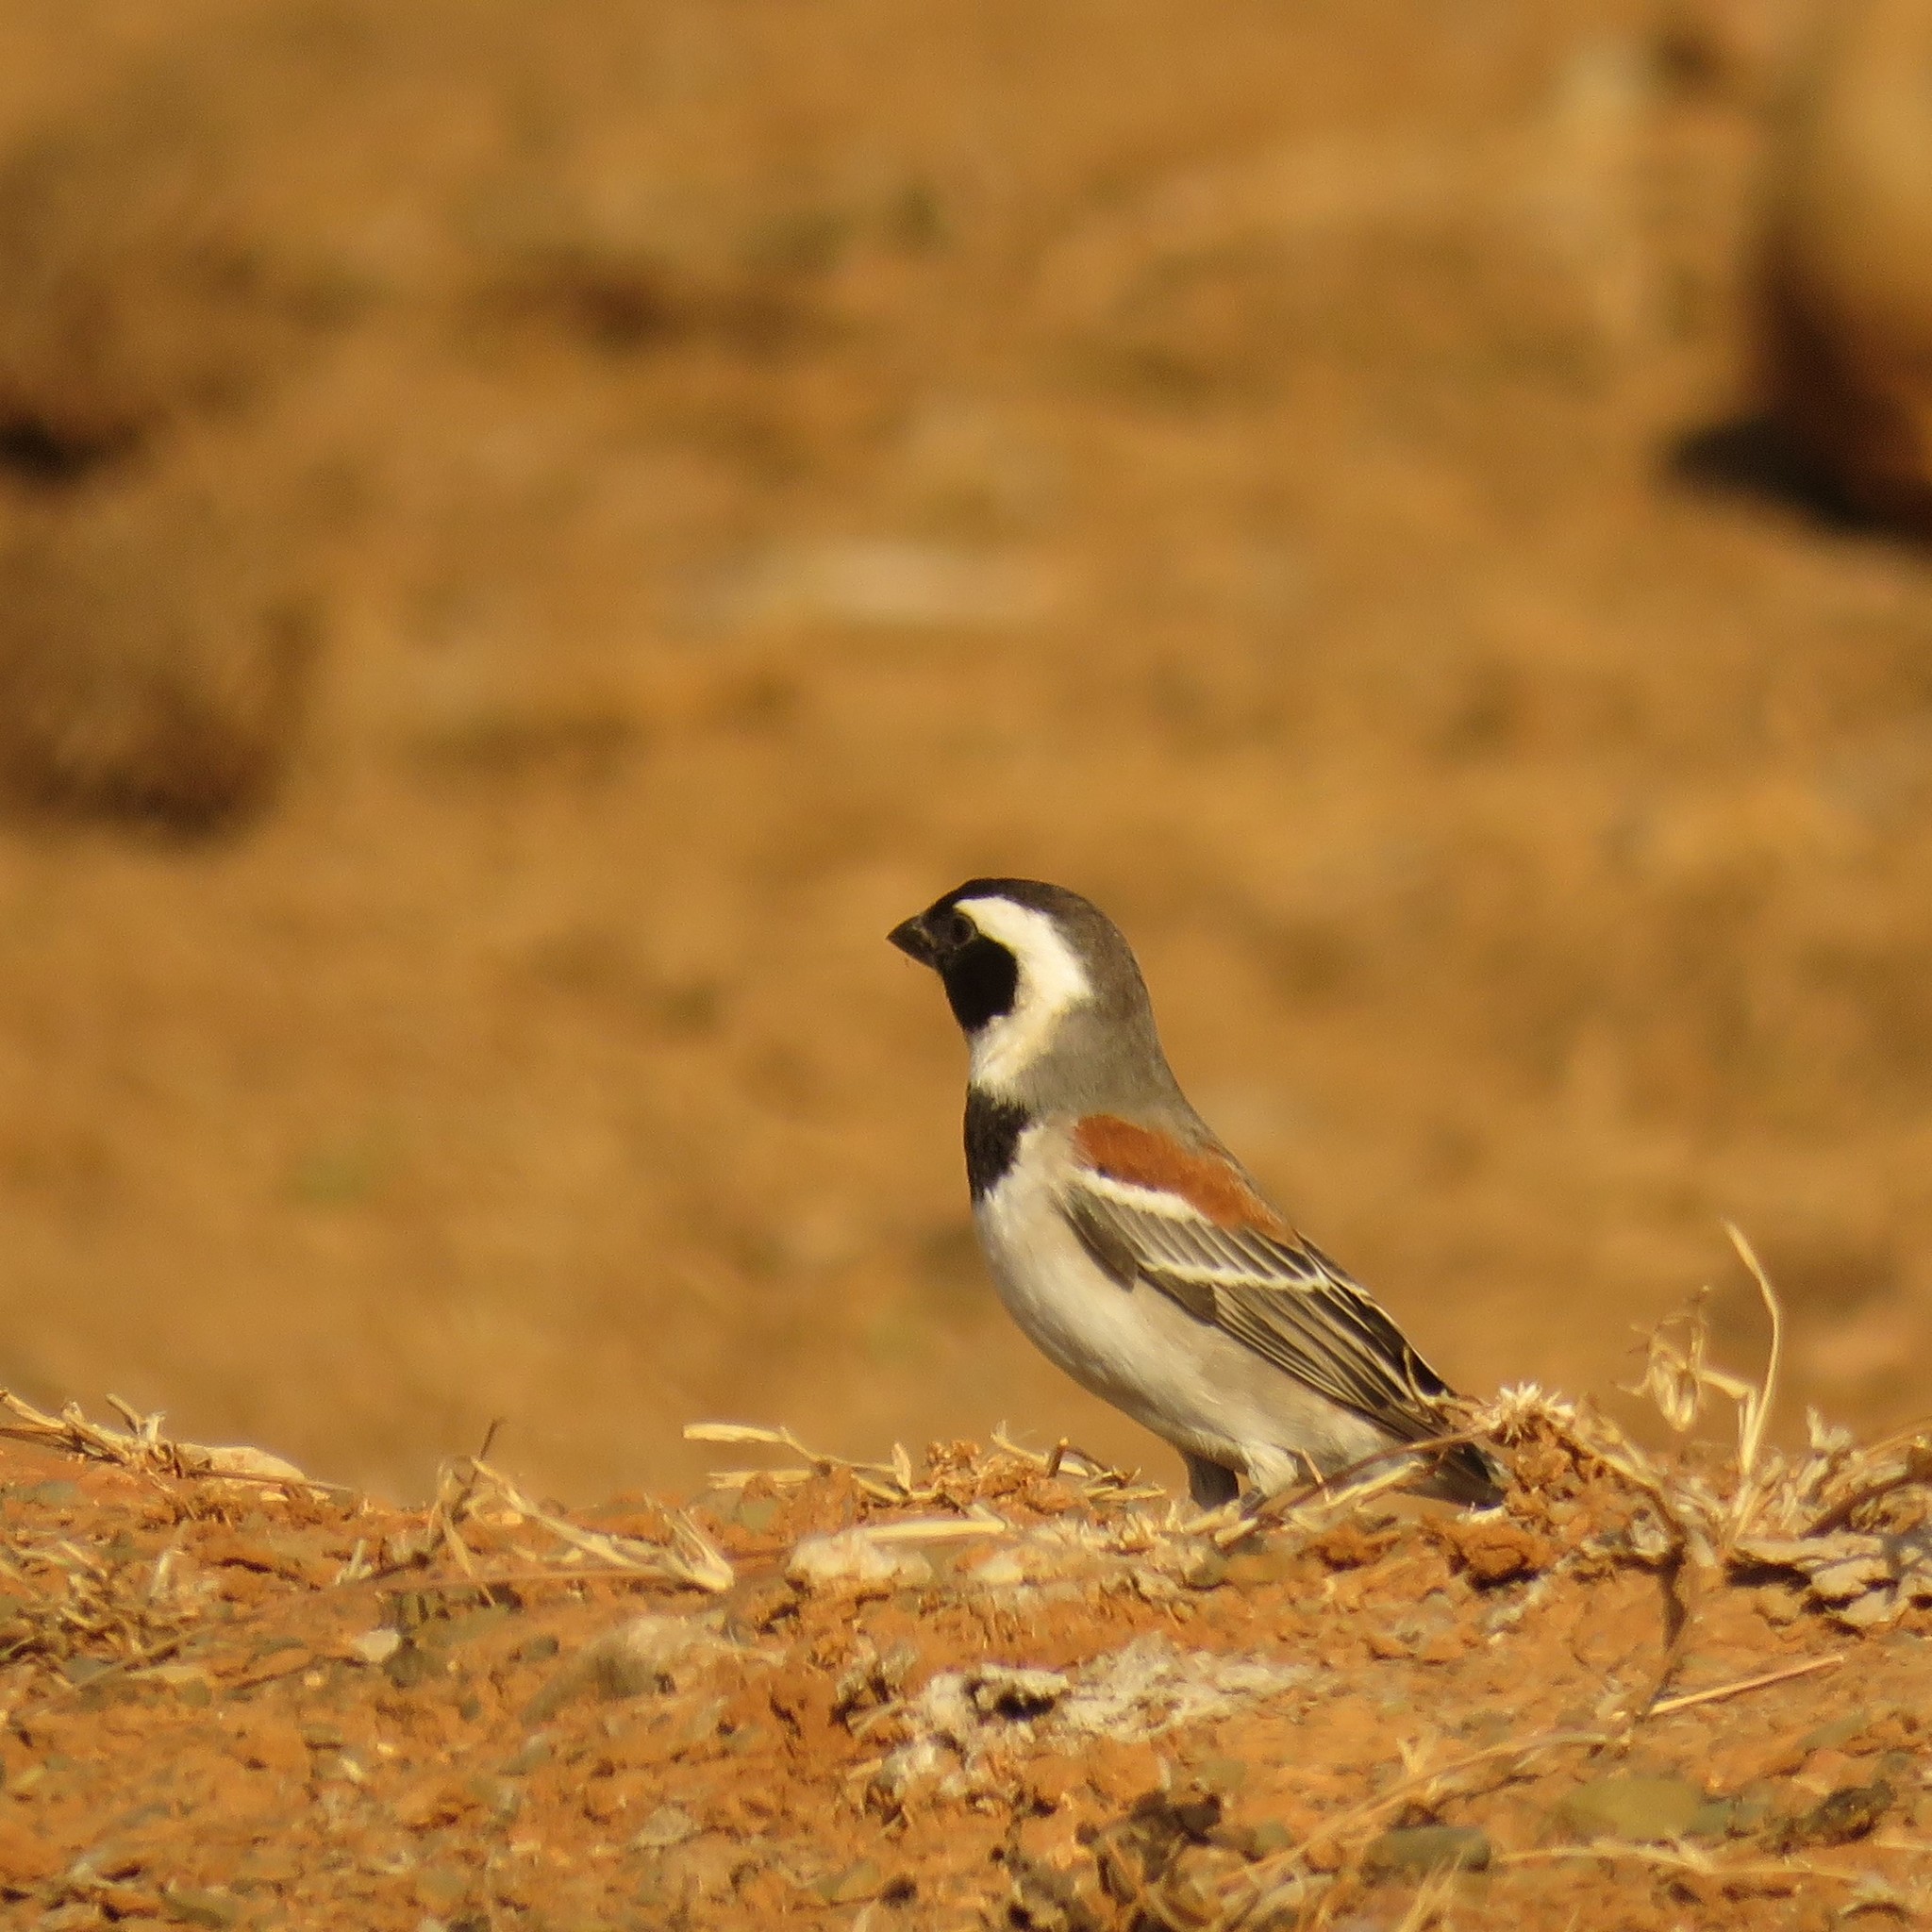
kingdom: Animalia
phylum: Chordata
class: Aves
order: Passeriformes
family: Passeridae
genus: Passer
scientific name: Passer melanurus
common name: Cape sparrow
